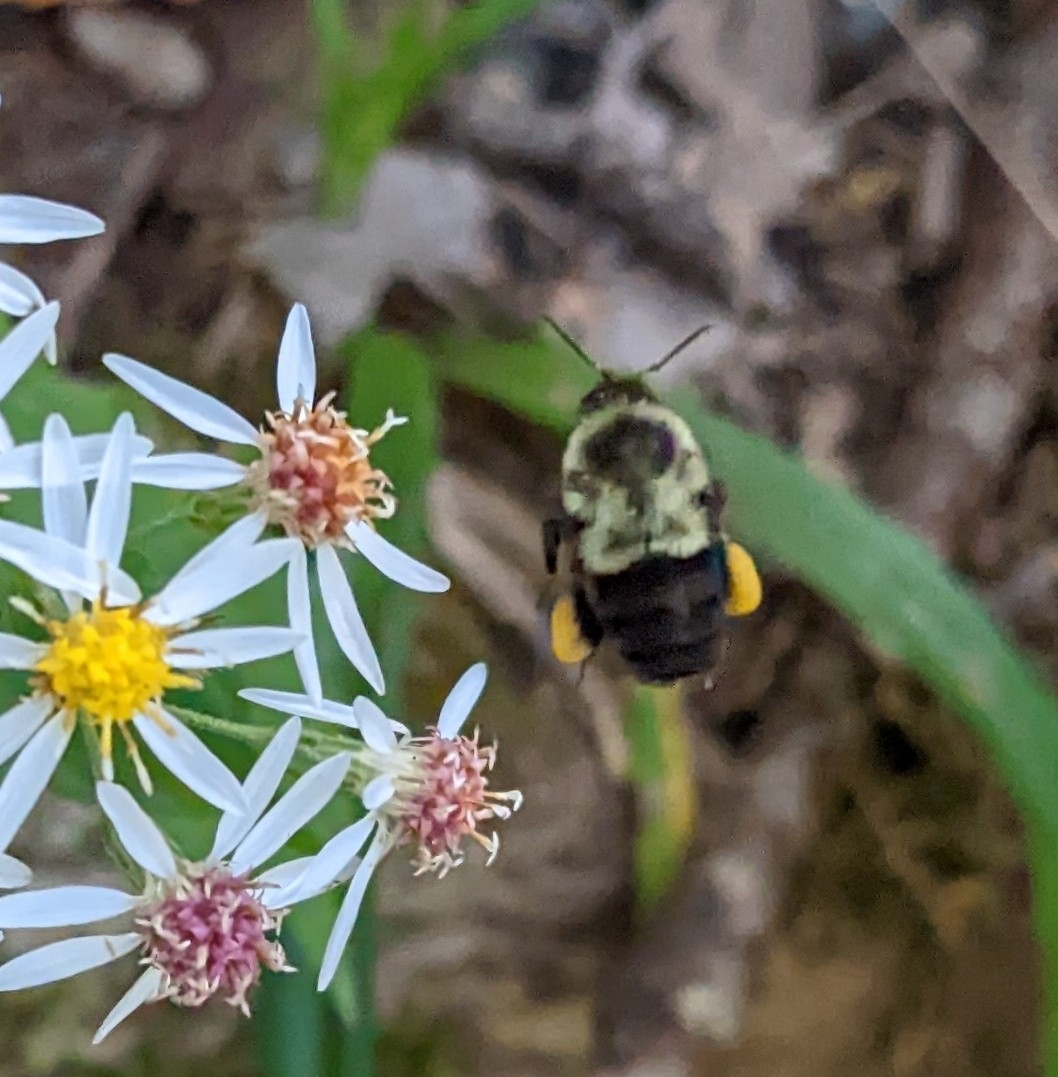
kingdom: Animalia
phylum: Arthropoda
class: Insecta
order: Hymenoptera
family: Apidae
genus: Bombus
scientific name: Bombus impatiens
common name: Common eastern bumble bee
